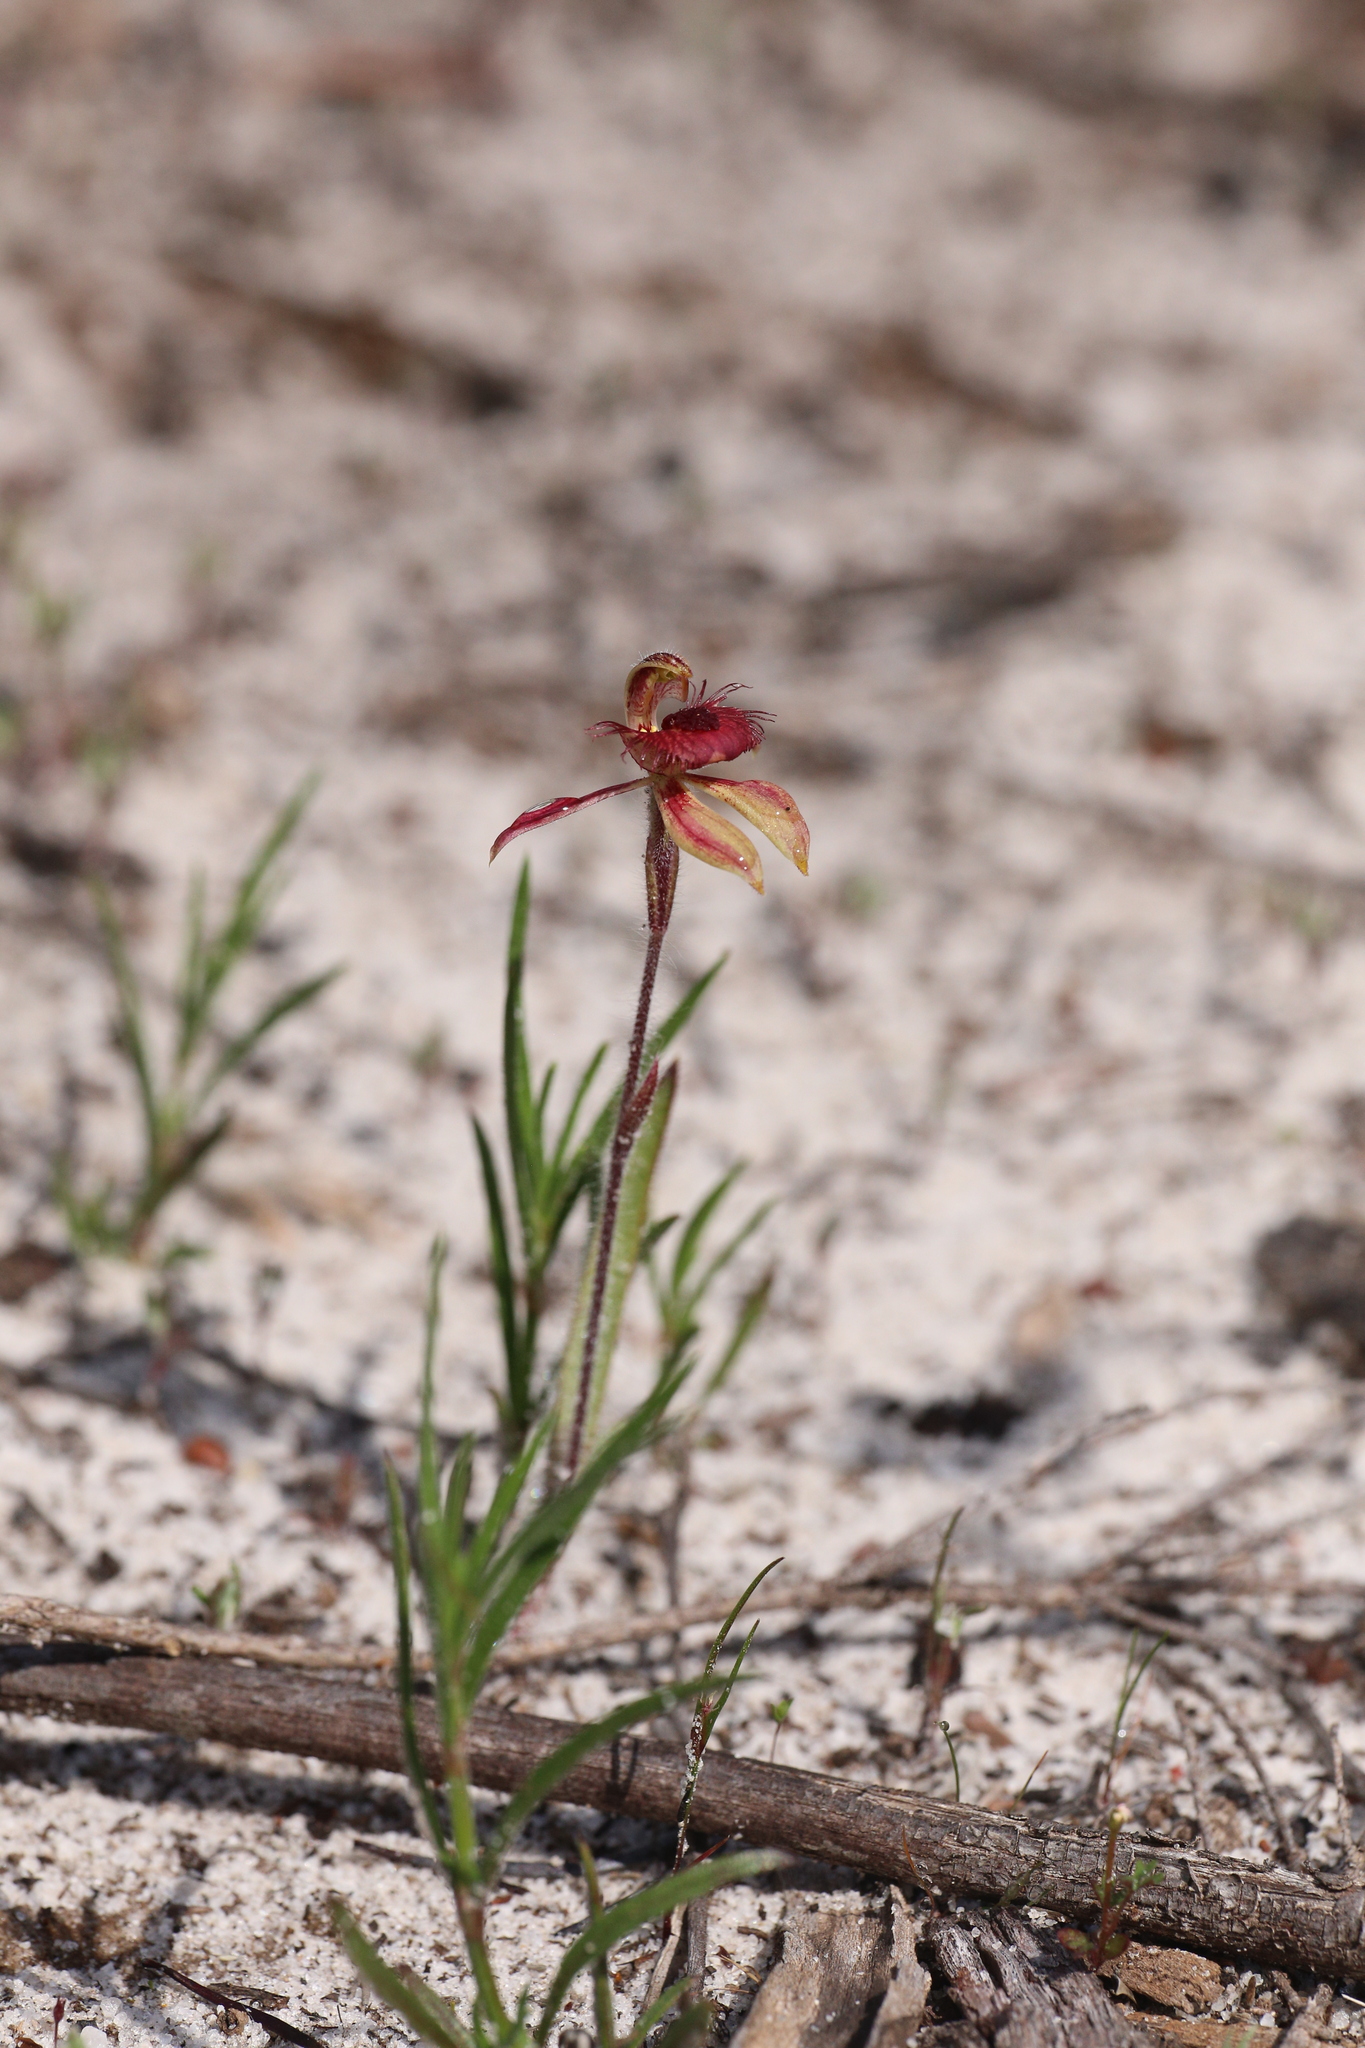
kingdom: Plantae
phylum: Tracheophyta
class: Liliopsida
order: Asparagales
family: Orchidaceae
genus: Caladenia
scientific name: Caladenia discoidea
